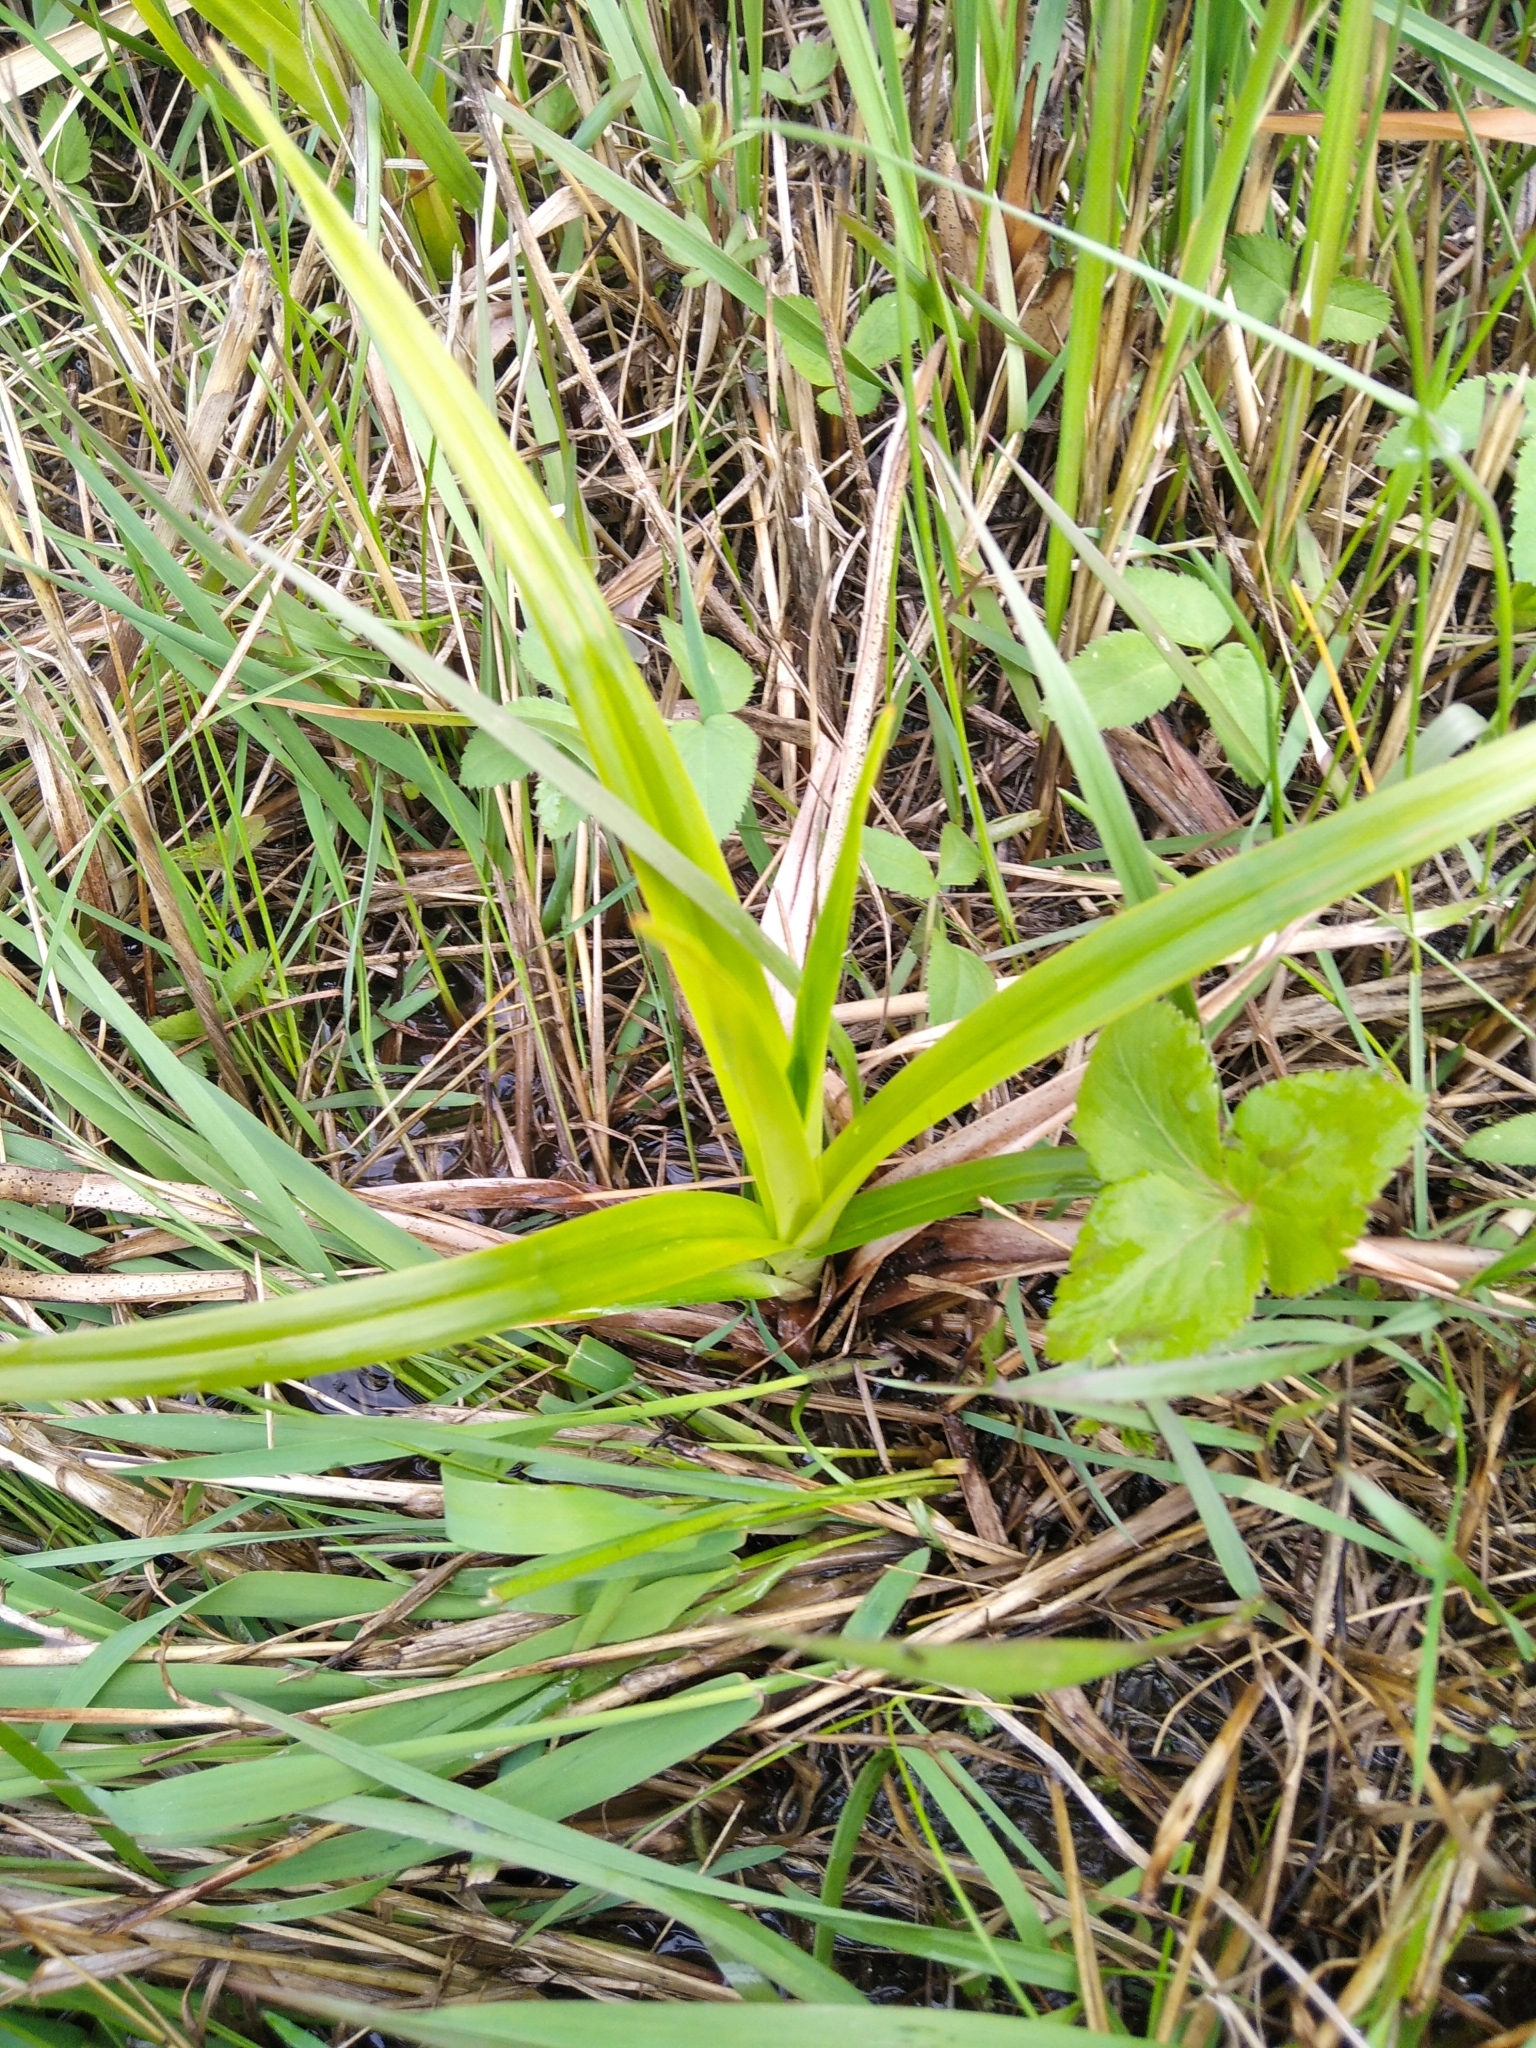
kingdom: Plantae
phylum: Tracheophyta
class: Liliopsida
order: Poales
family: Cyperaceae
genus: Scirpus
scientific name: Scirpus sylvaticus
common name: Wood club-rush
